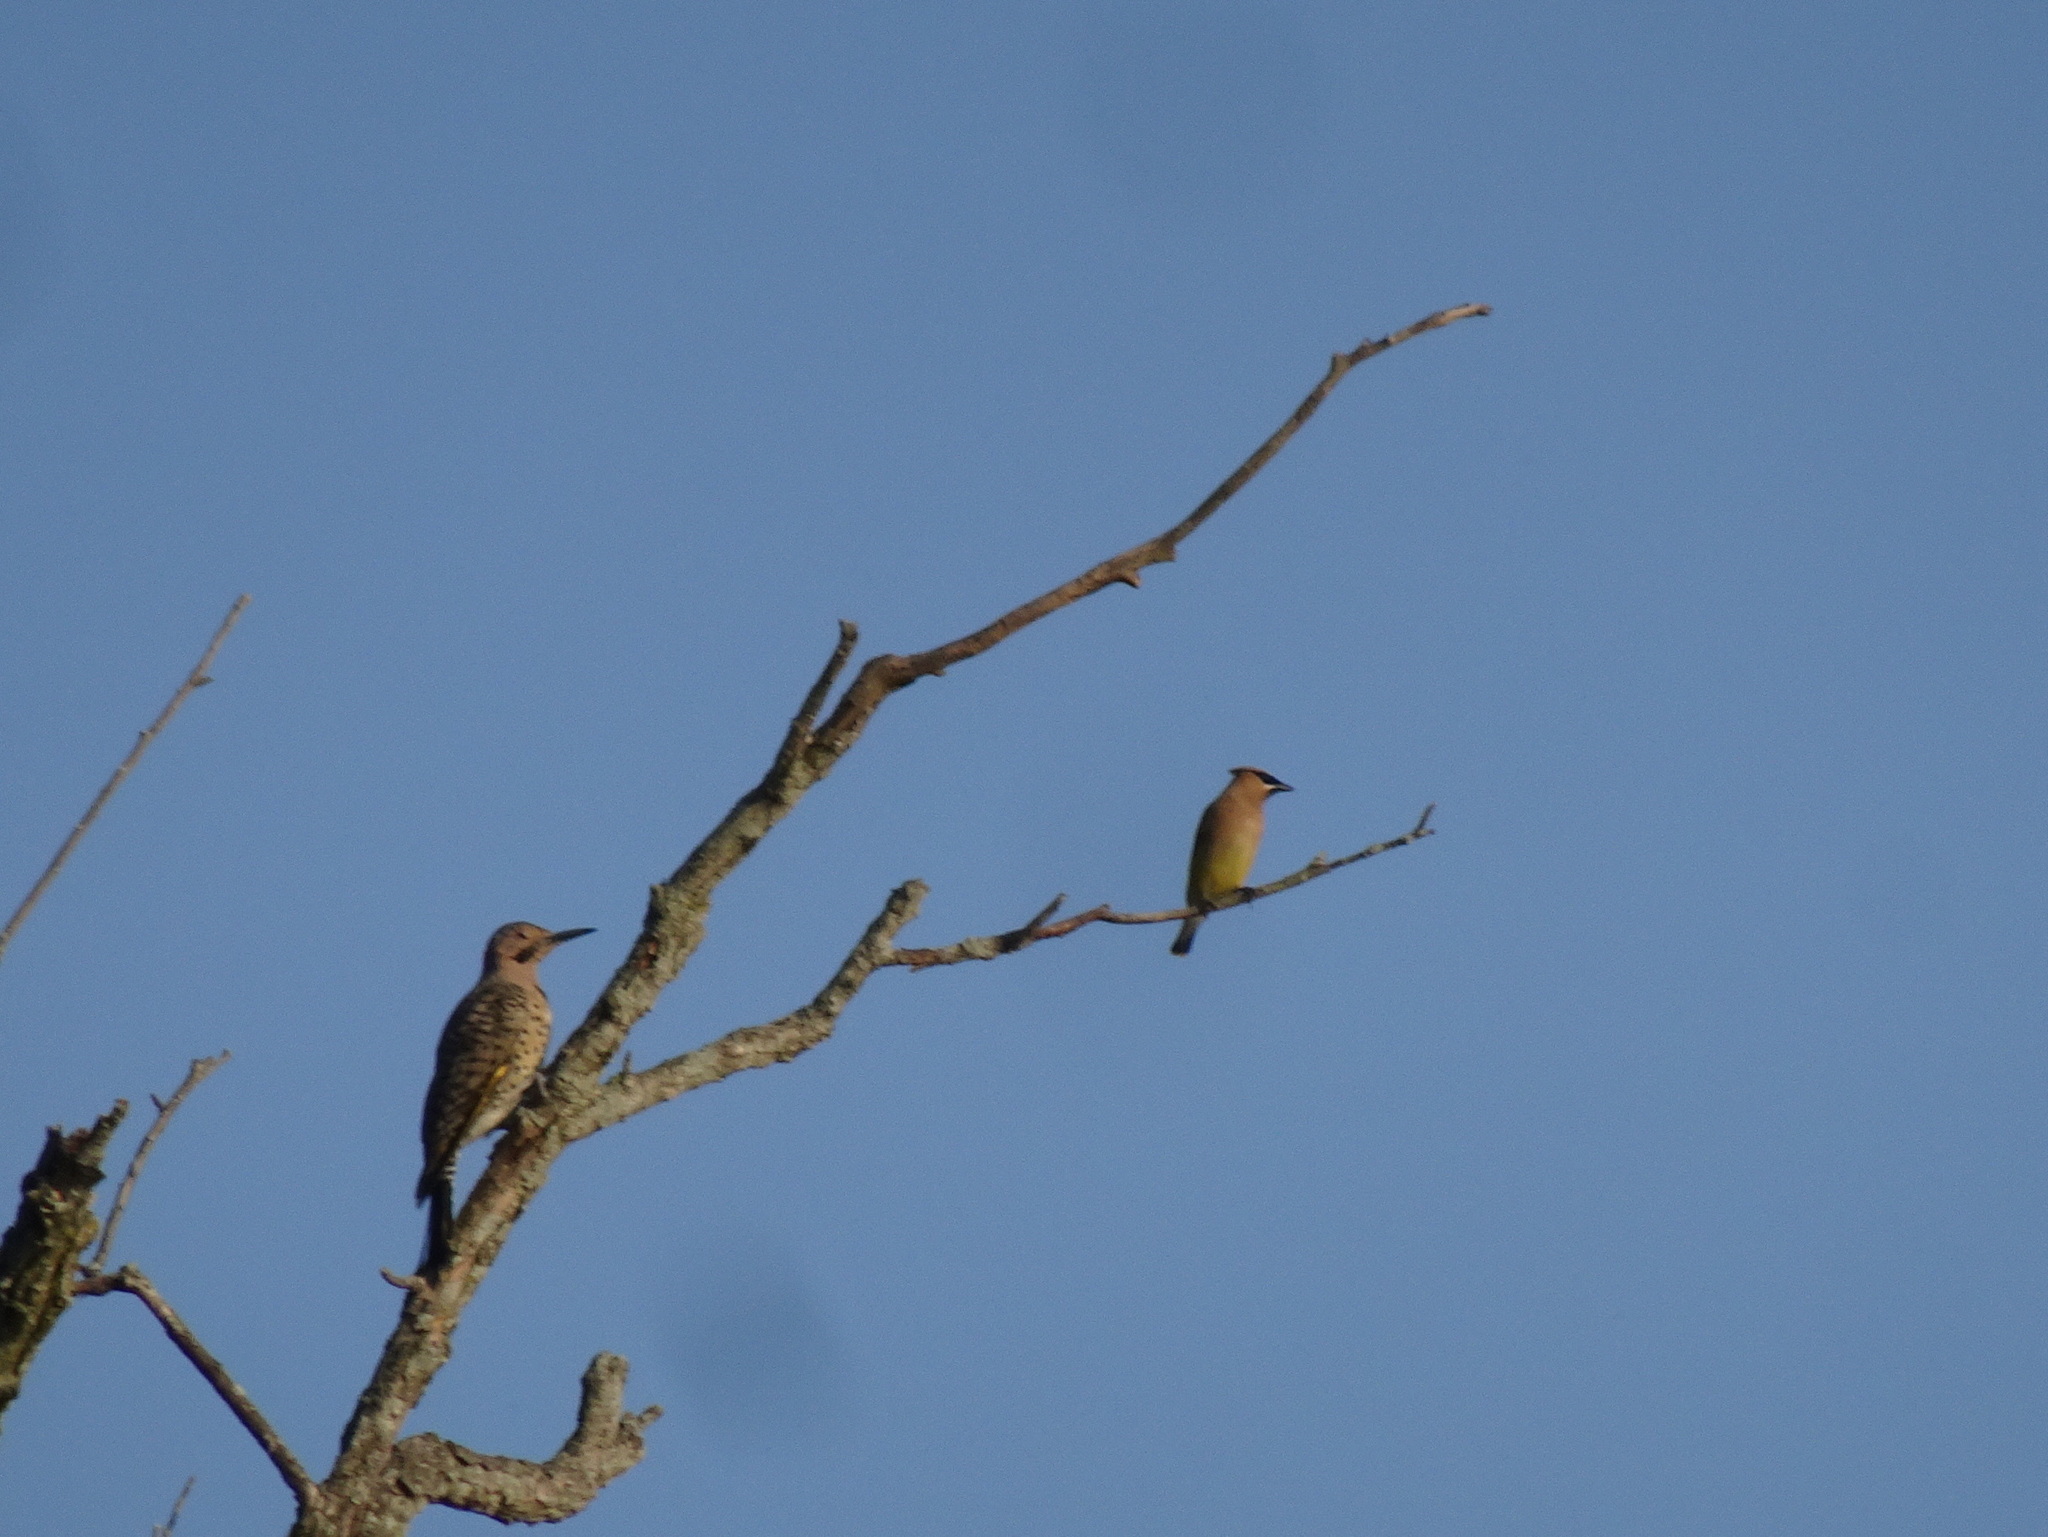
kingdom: Animalia
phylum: Chordata
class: Aves
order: Piciformes
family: Picidae
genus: Colaptes
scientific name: Colaptes auratus
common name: Northern flicker
